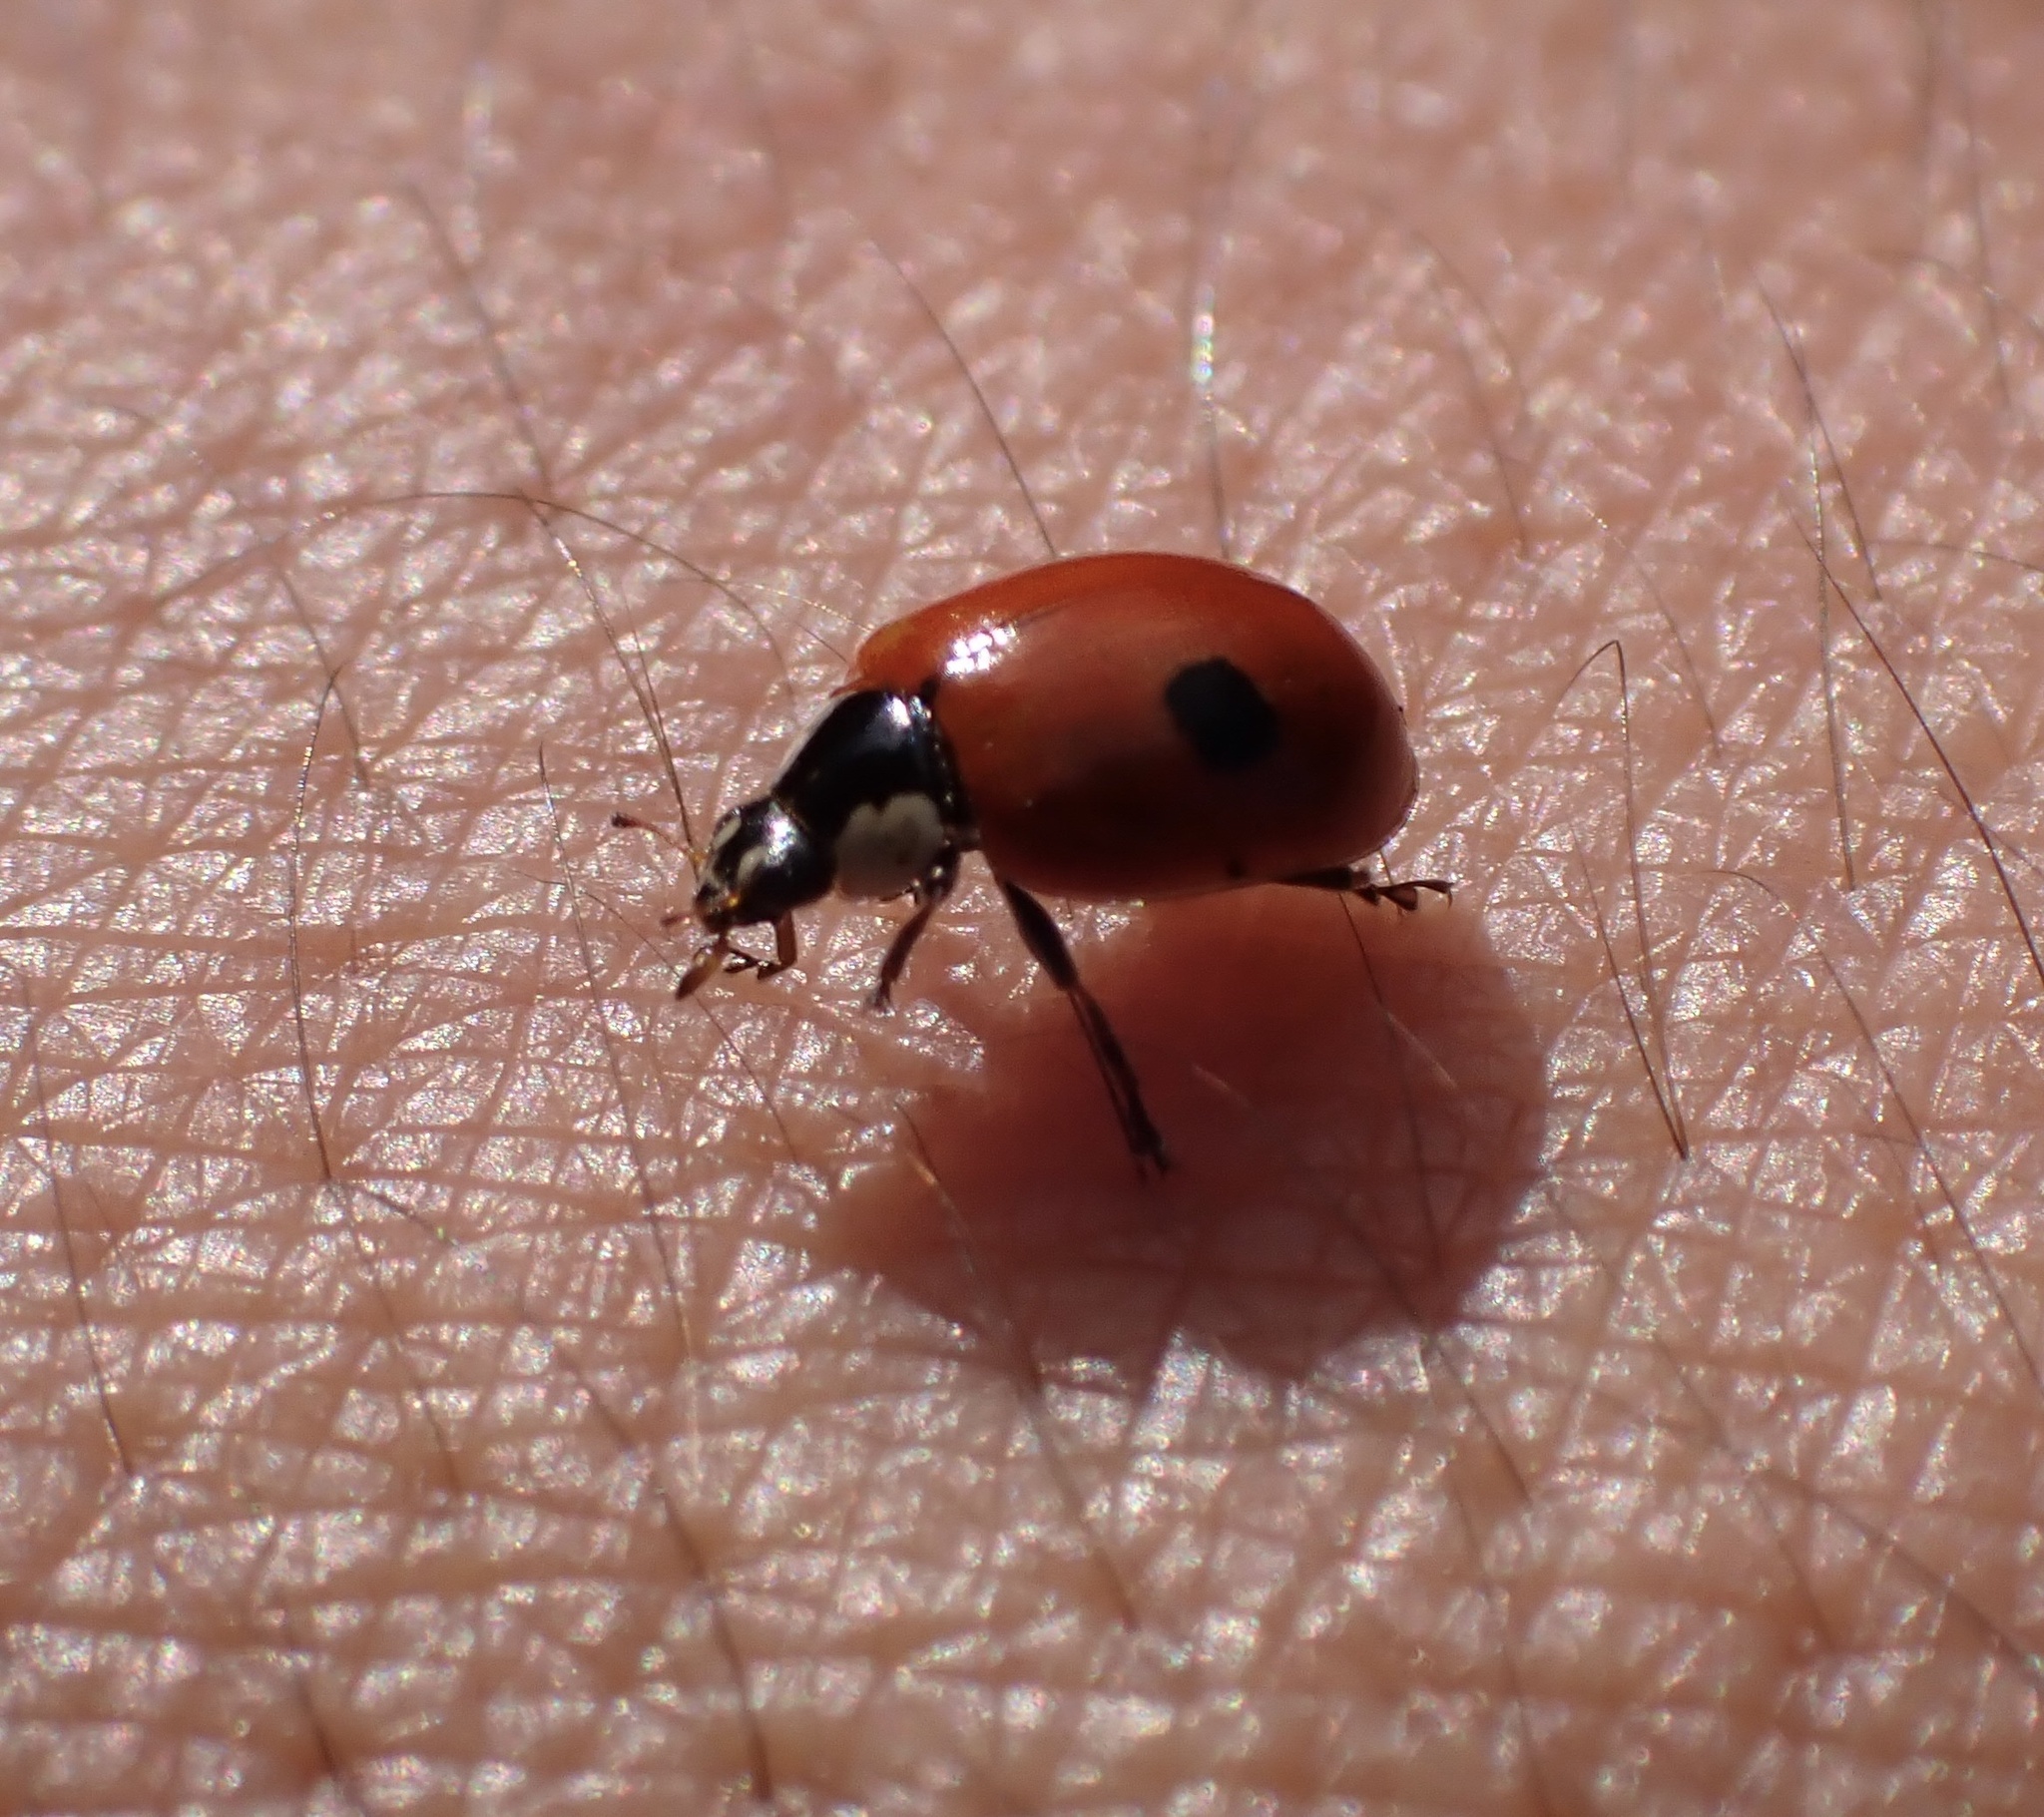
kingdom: Animalia
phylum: Arthropoda
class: Insecta
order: Coleoptera
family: Coccinellidae
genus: Adalia
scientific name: Adalia bipunctata
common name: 2-spot ladybird
